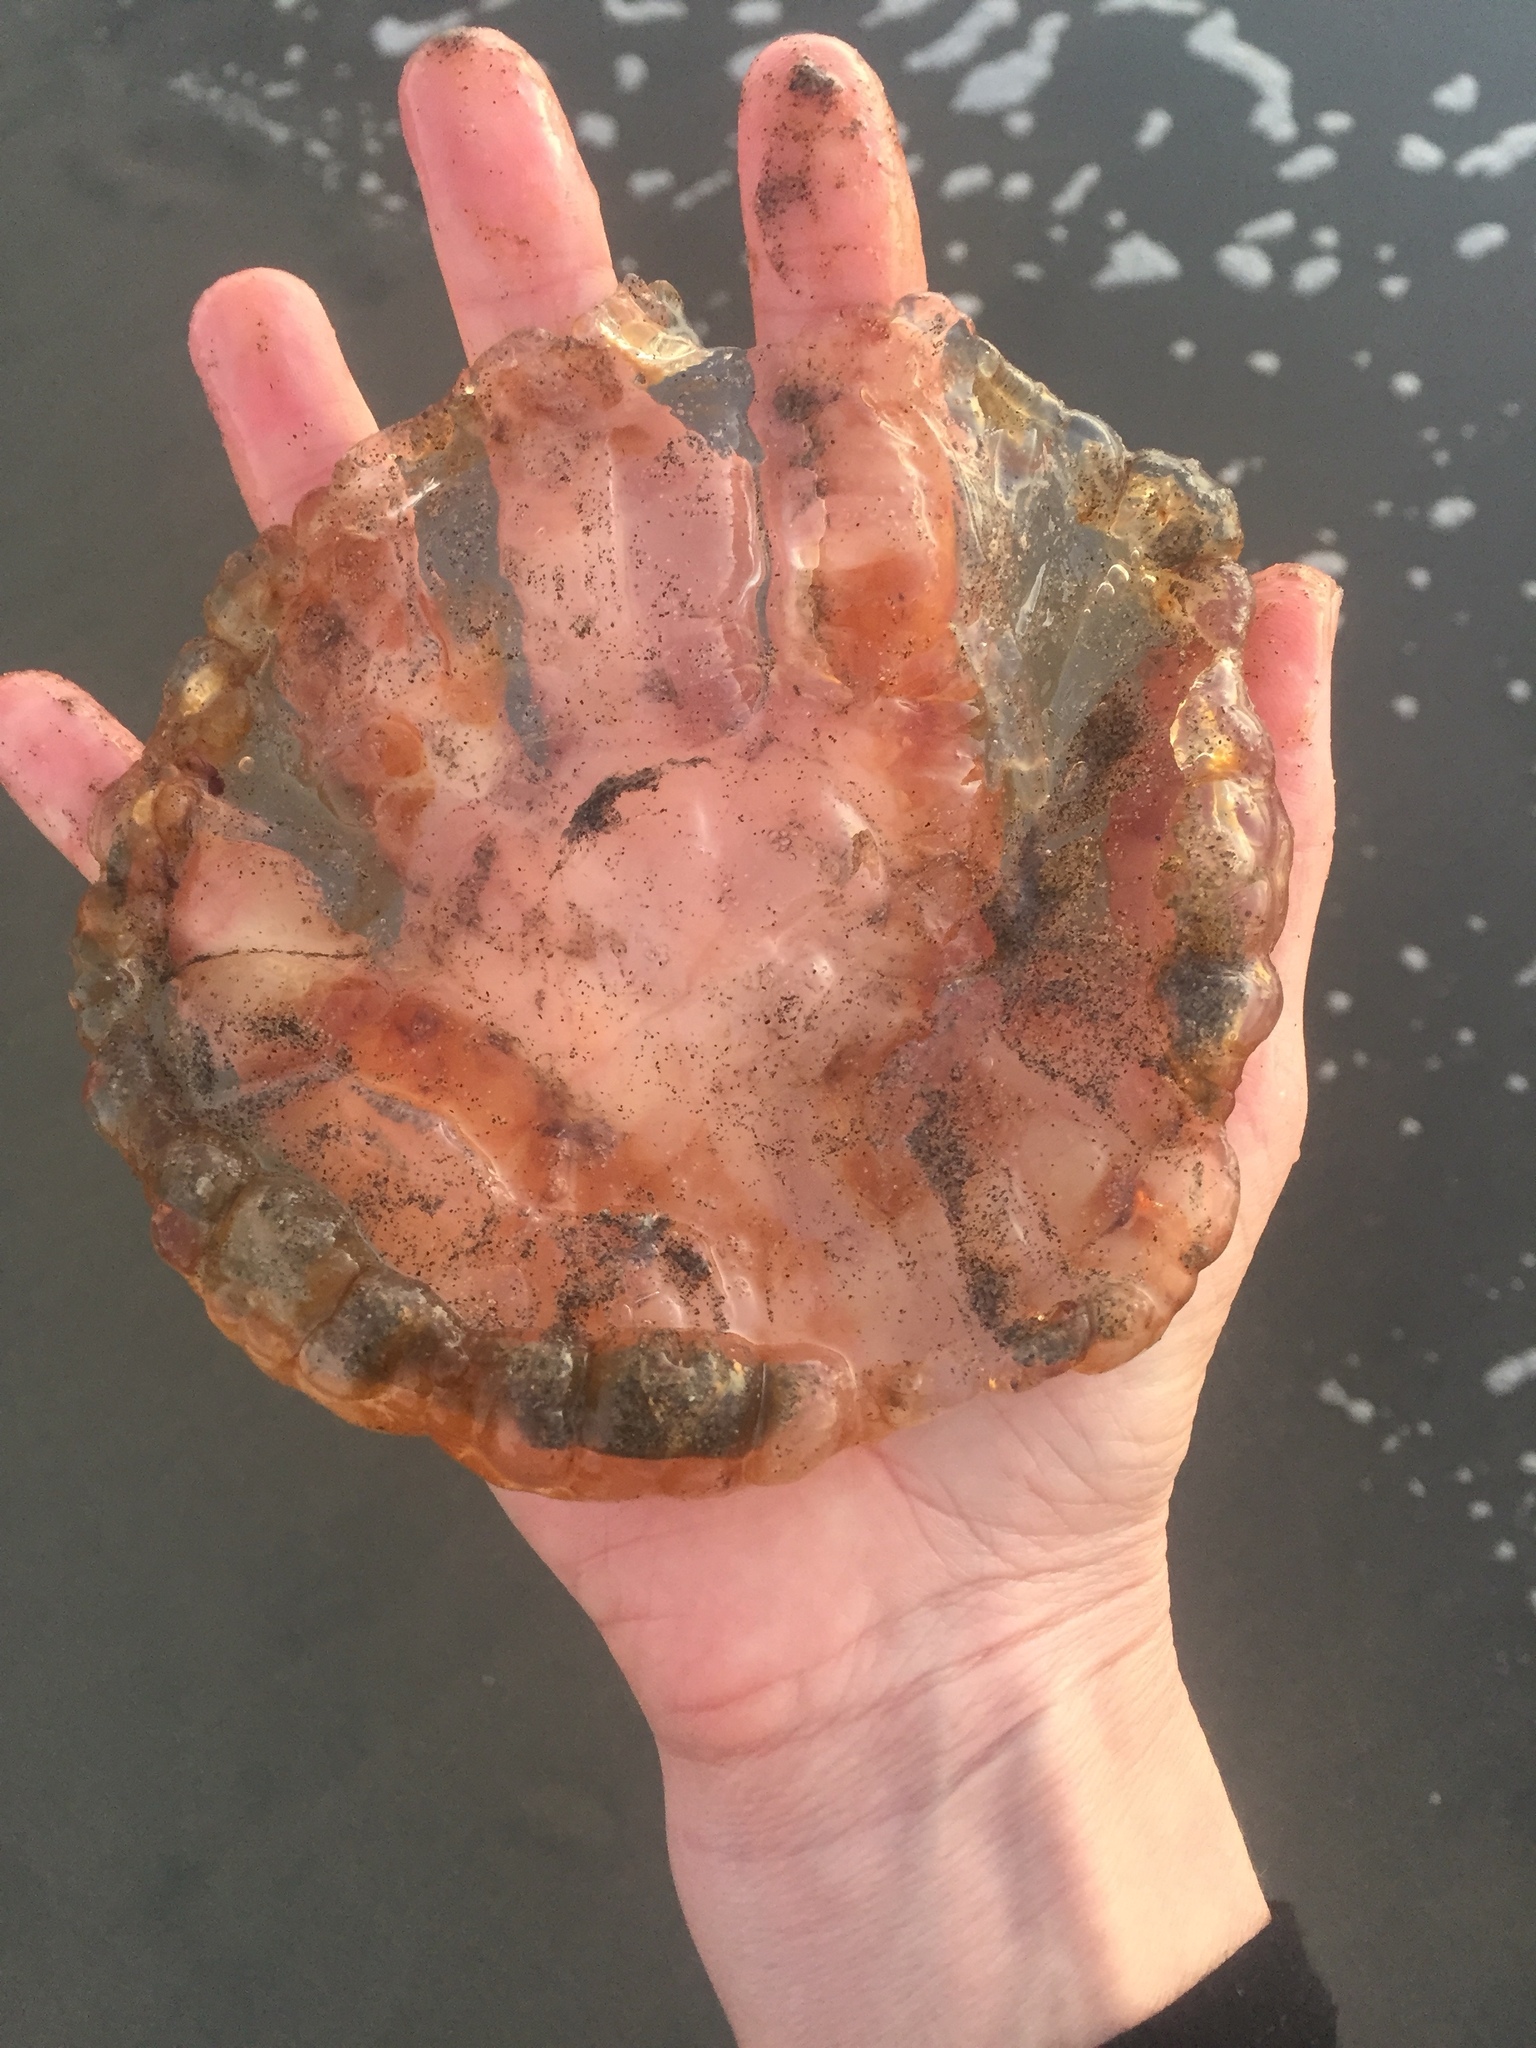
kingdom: Animalia
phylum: Cnidaria
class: Scyphozoa
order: Semaeostomeae
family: Pelagiidae
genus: Chrysaora
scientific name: Chrysaora fuscescens
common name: Sea nettle
